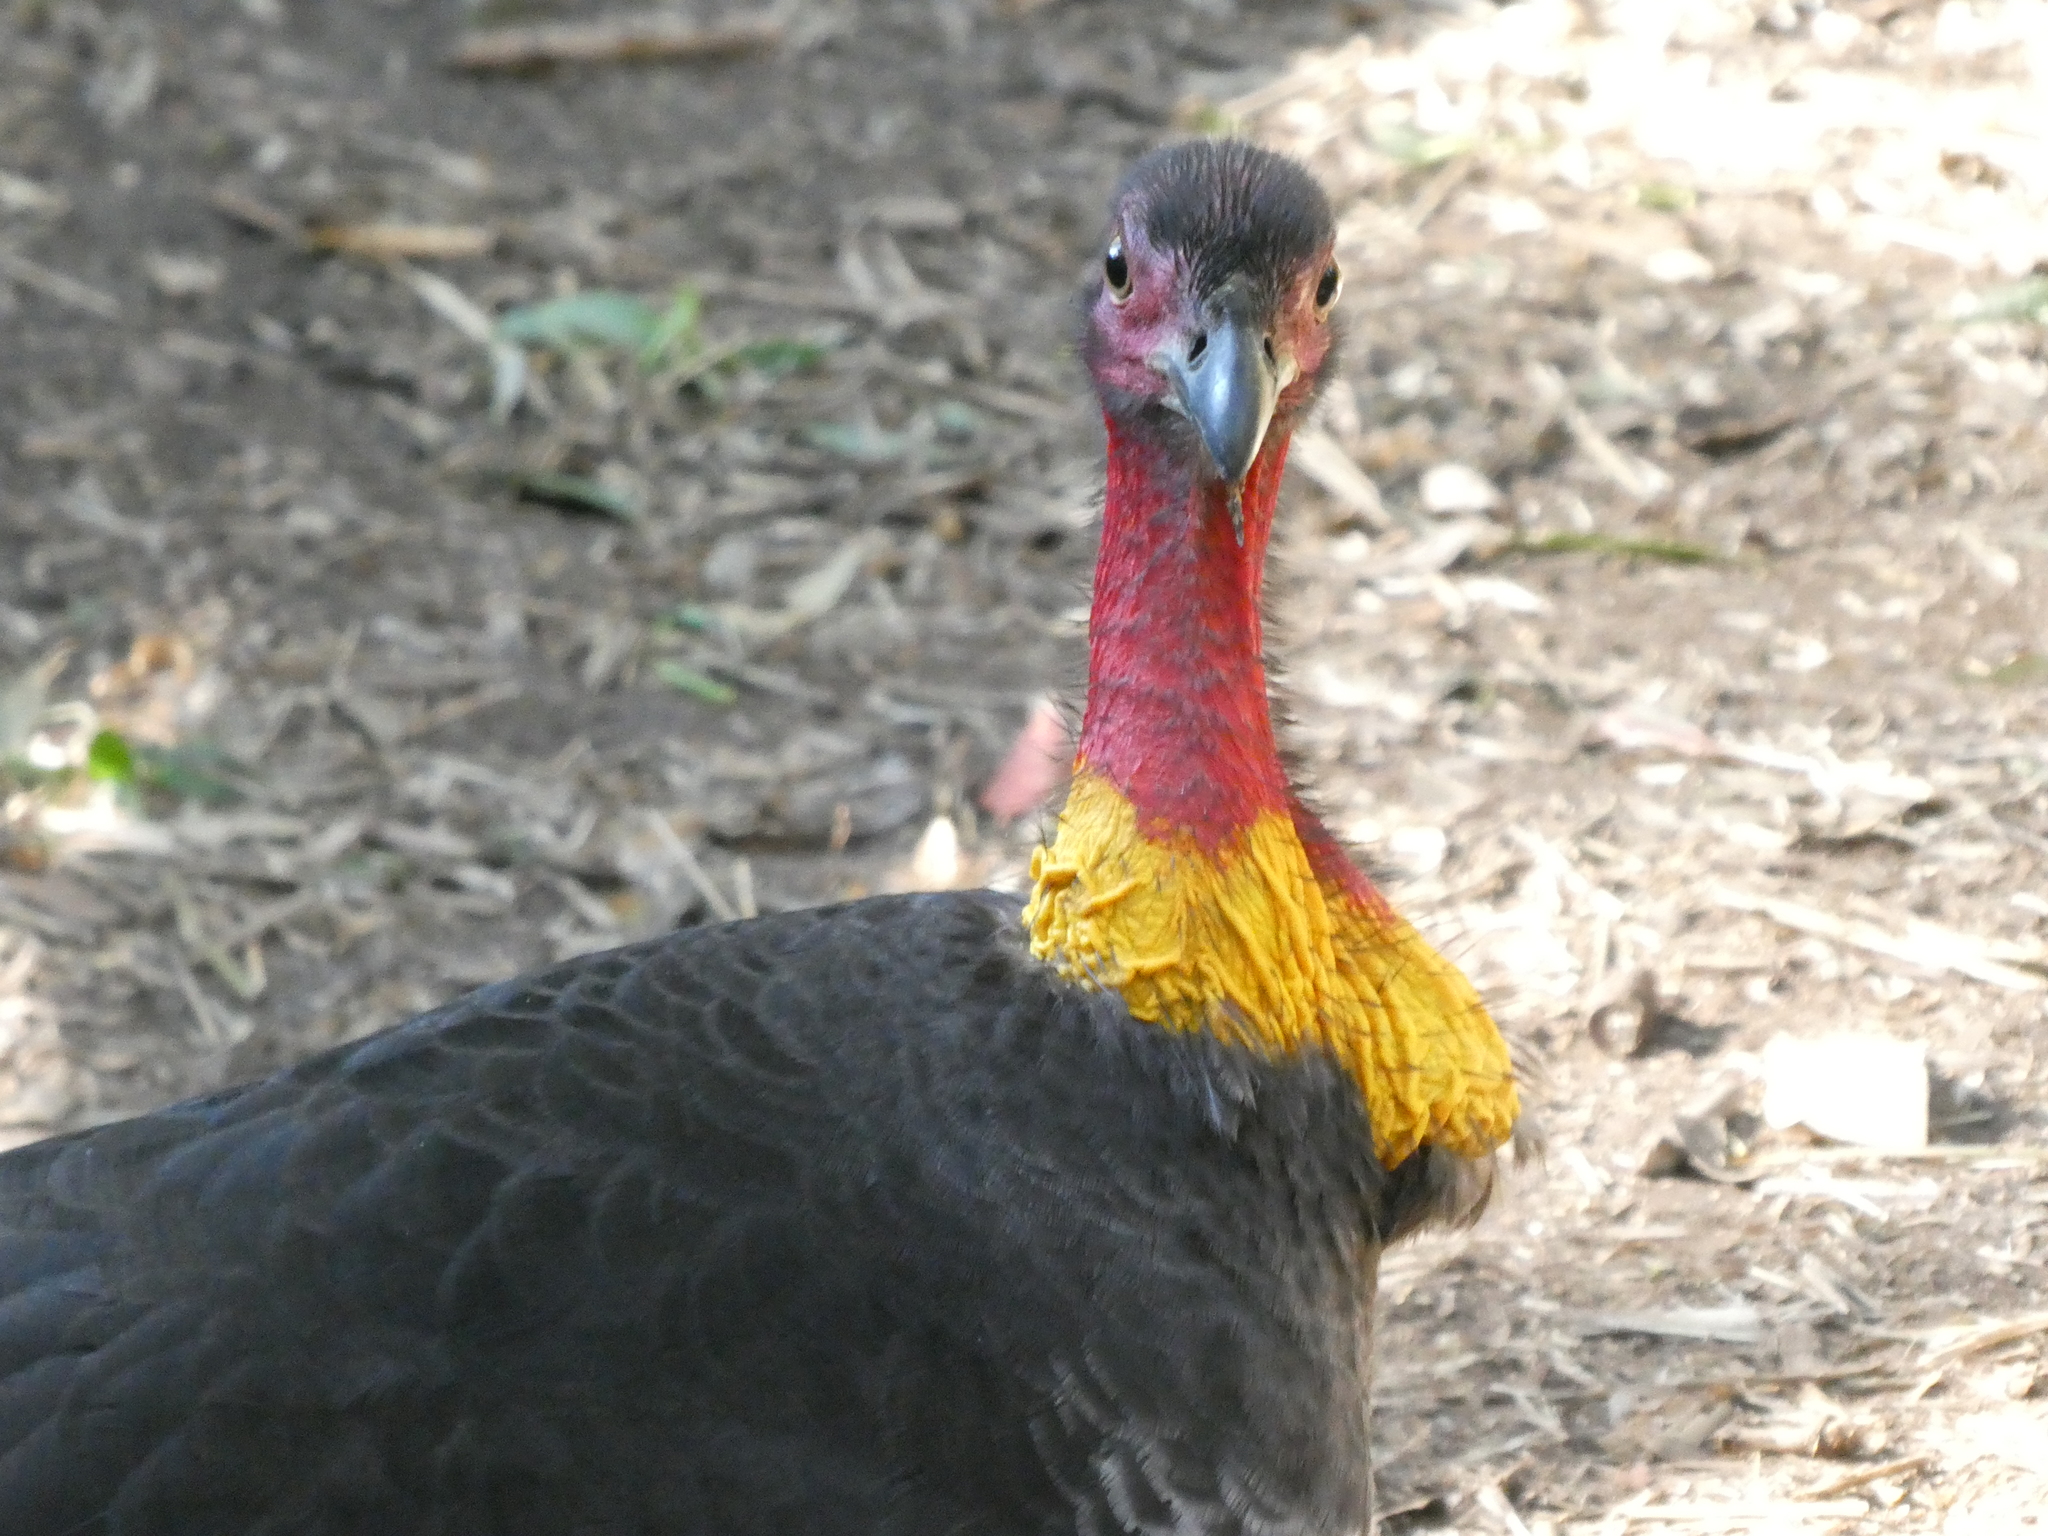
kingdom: Animalia
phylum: Chordata
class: Aves
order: Galliformes
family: Megapodiidae
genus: Alectura
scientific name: Alectura lathami
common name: Australian brushturkey
